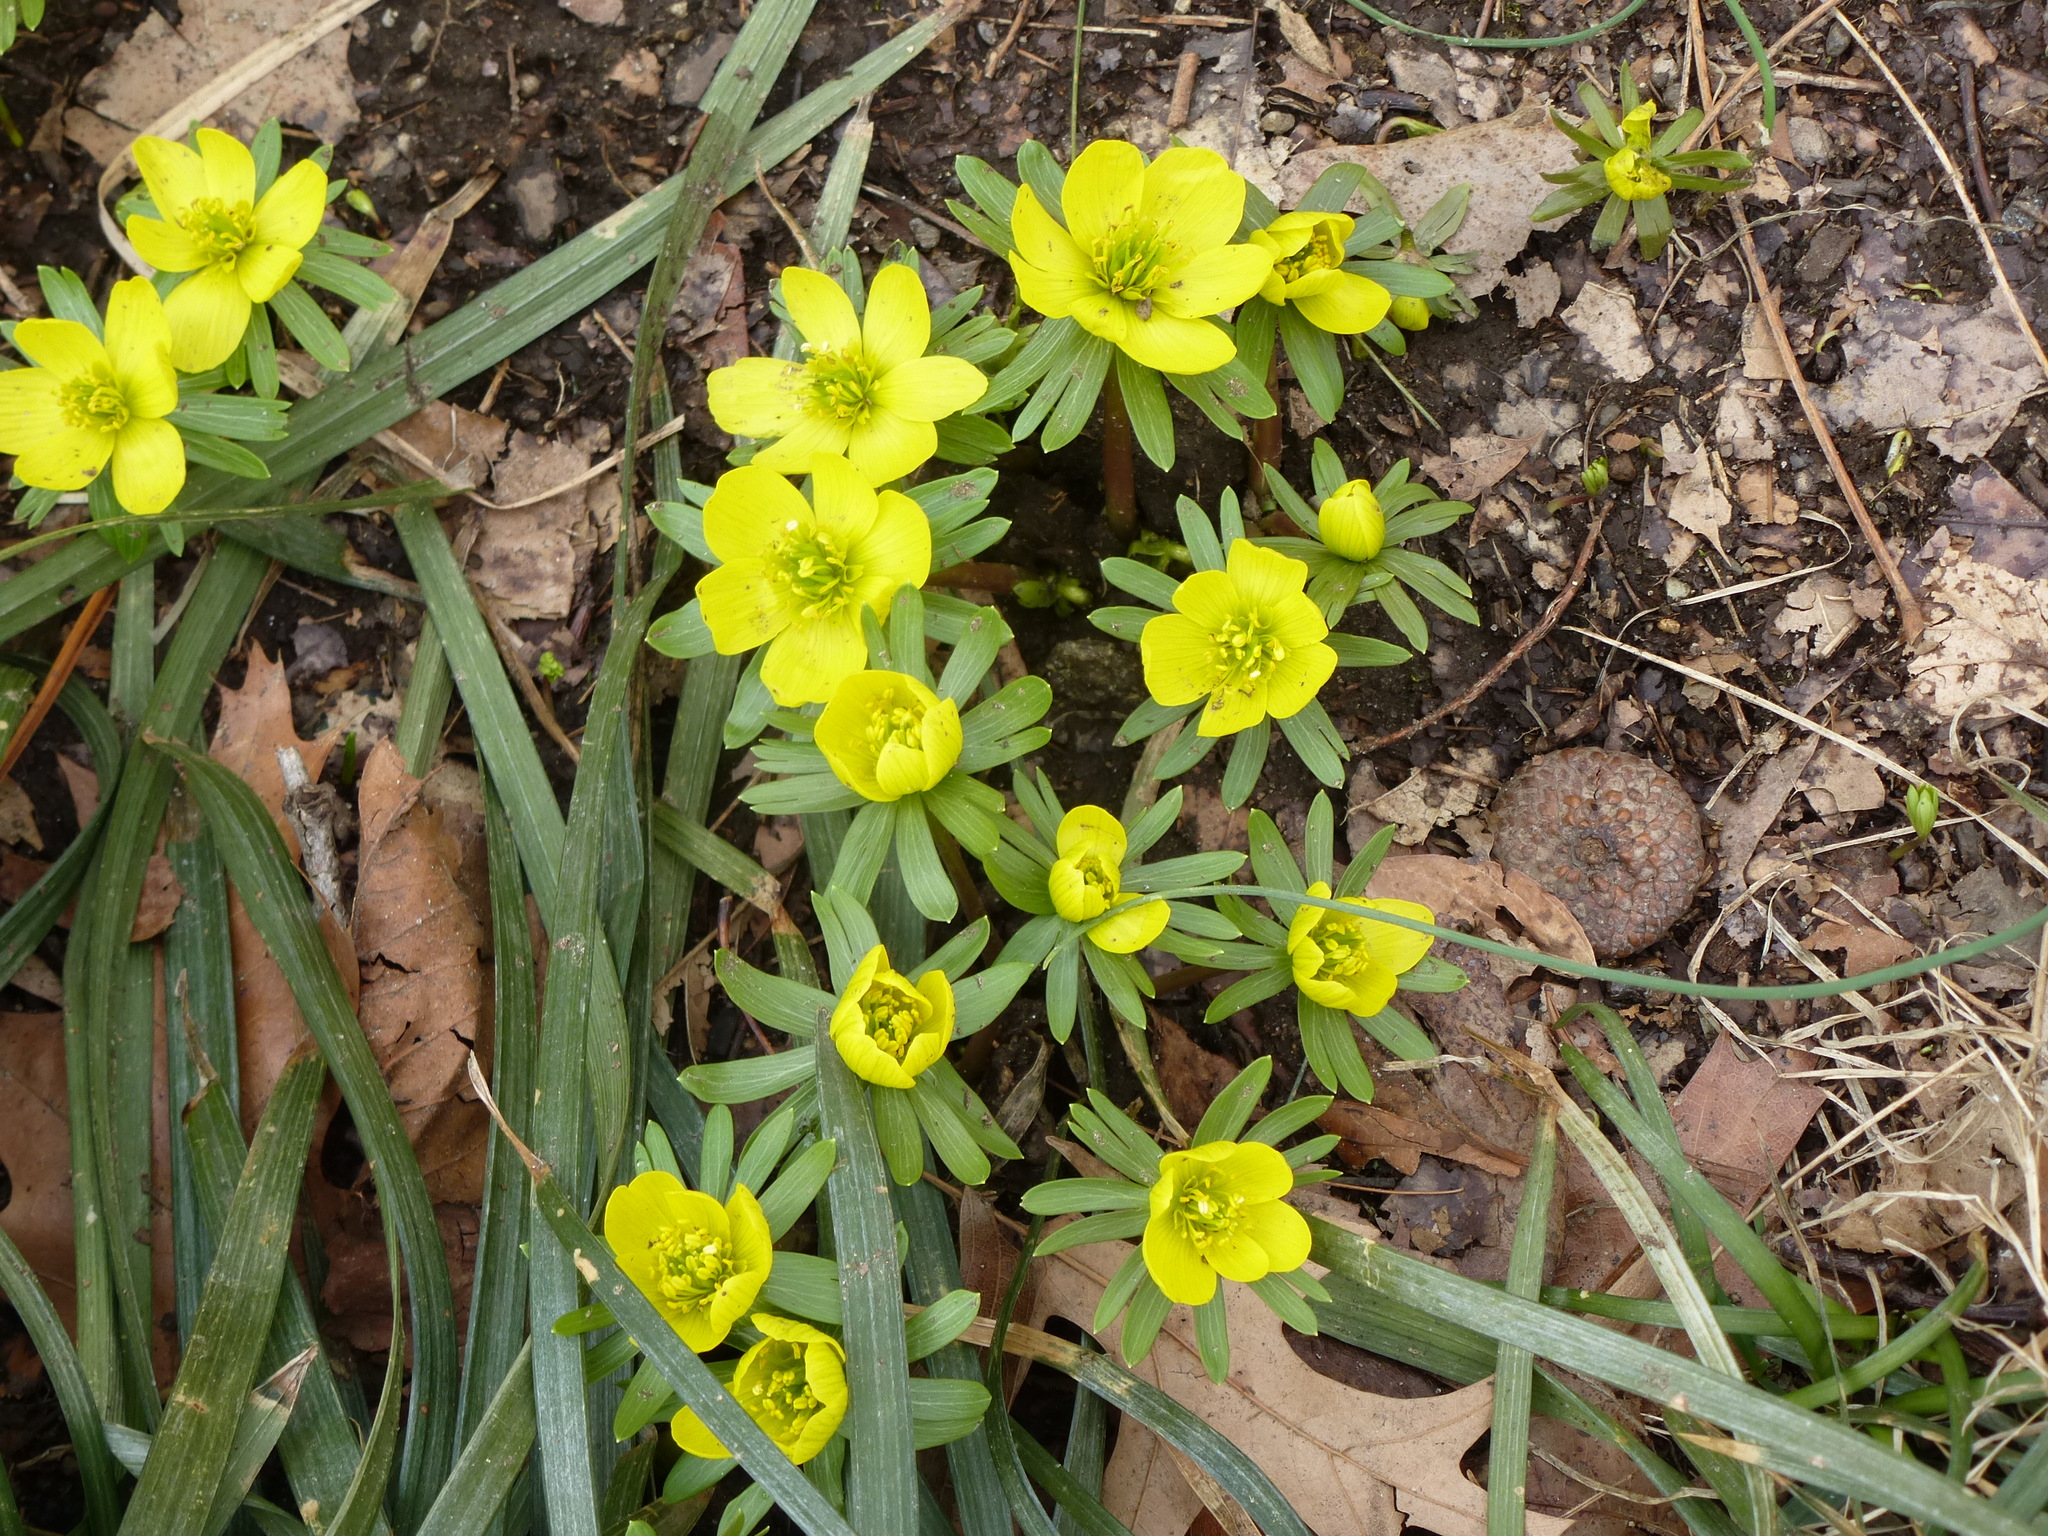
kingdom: Plantae
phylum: Tracheophyta
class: Magnoliopsida
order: Ranunculales
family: Ranunculaceae
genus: Eranthis
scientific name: Eranthis hyemalis
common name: Winter aconite
